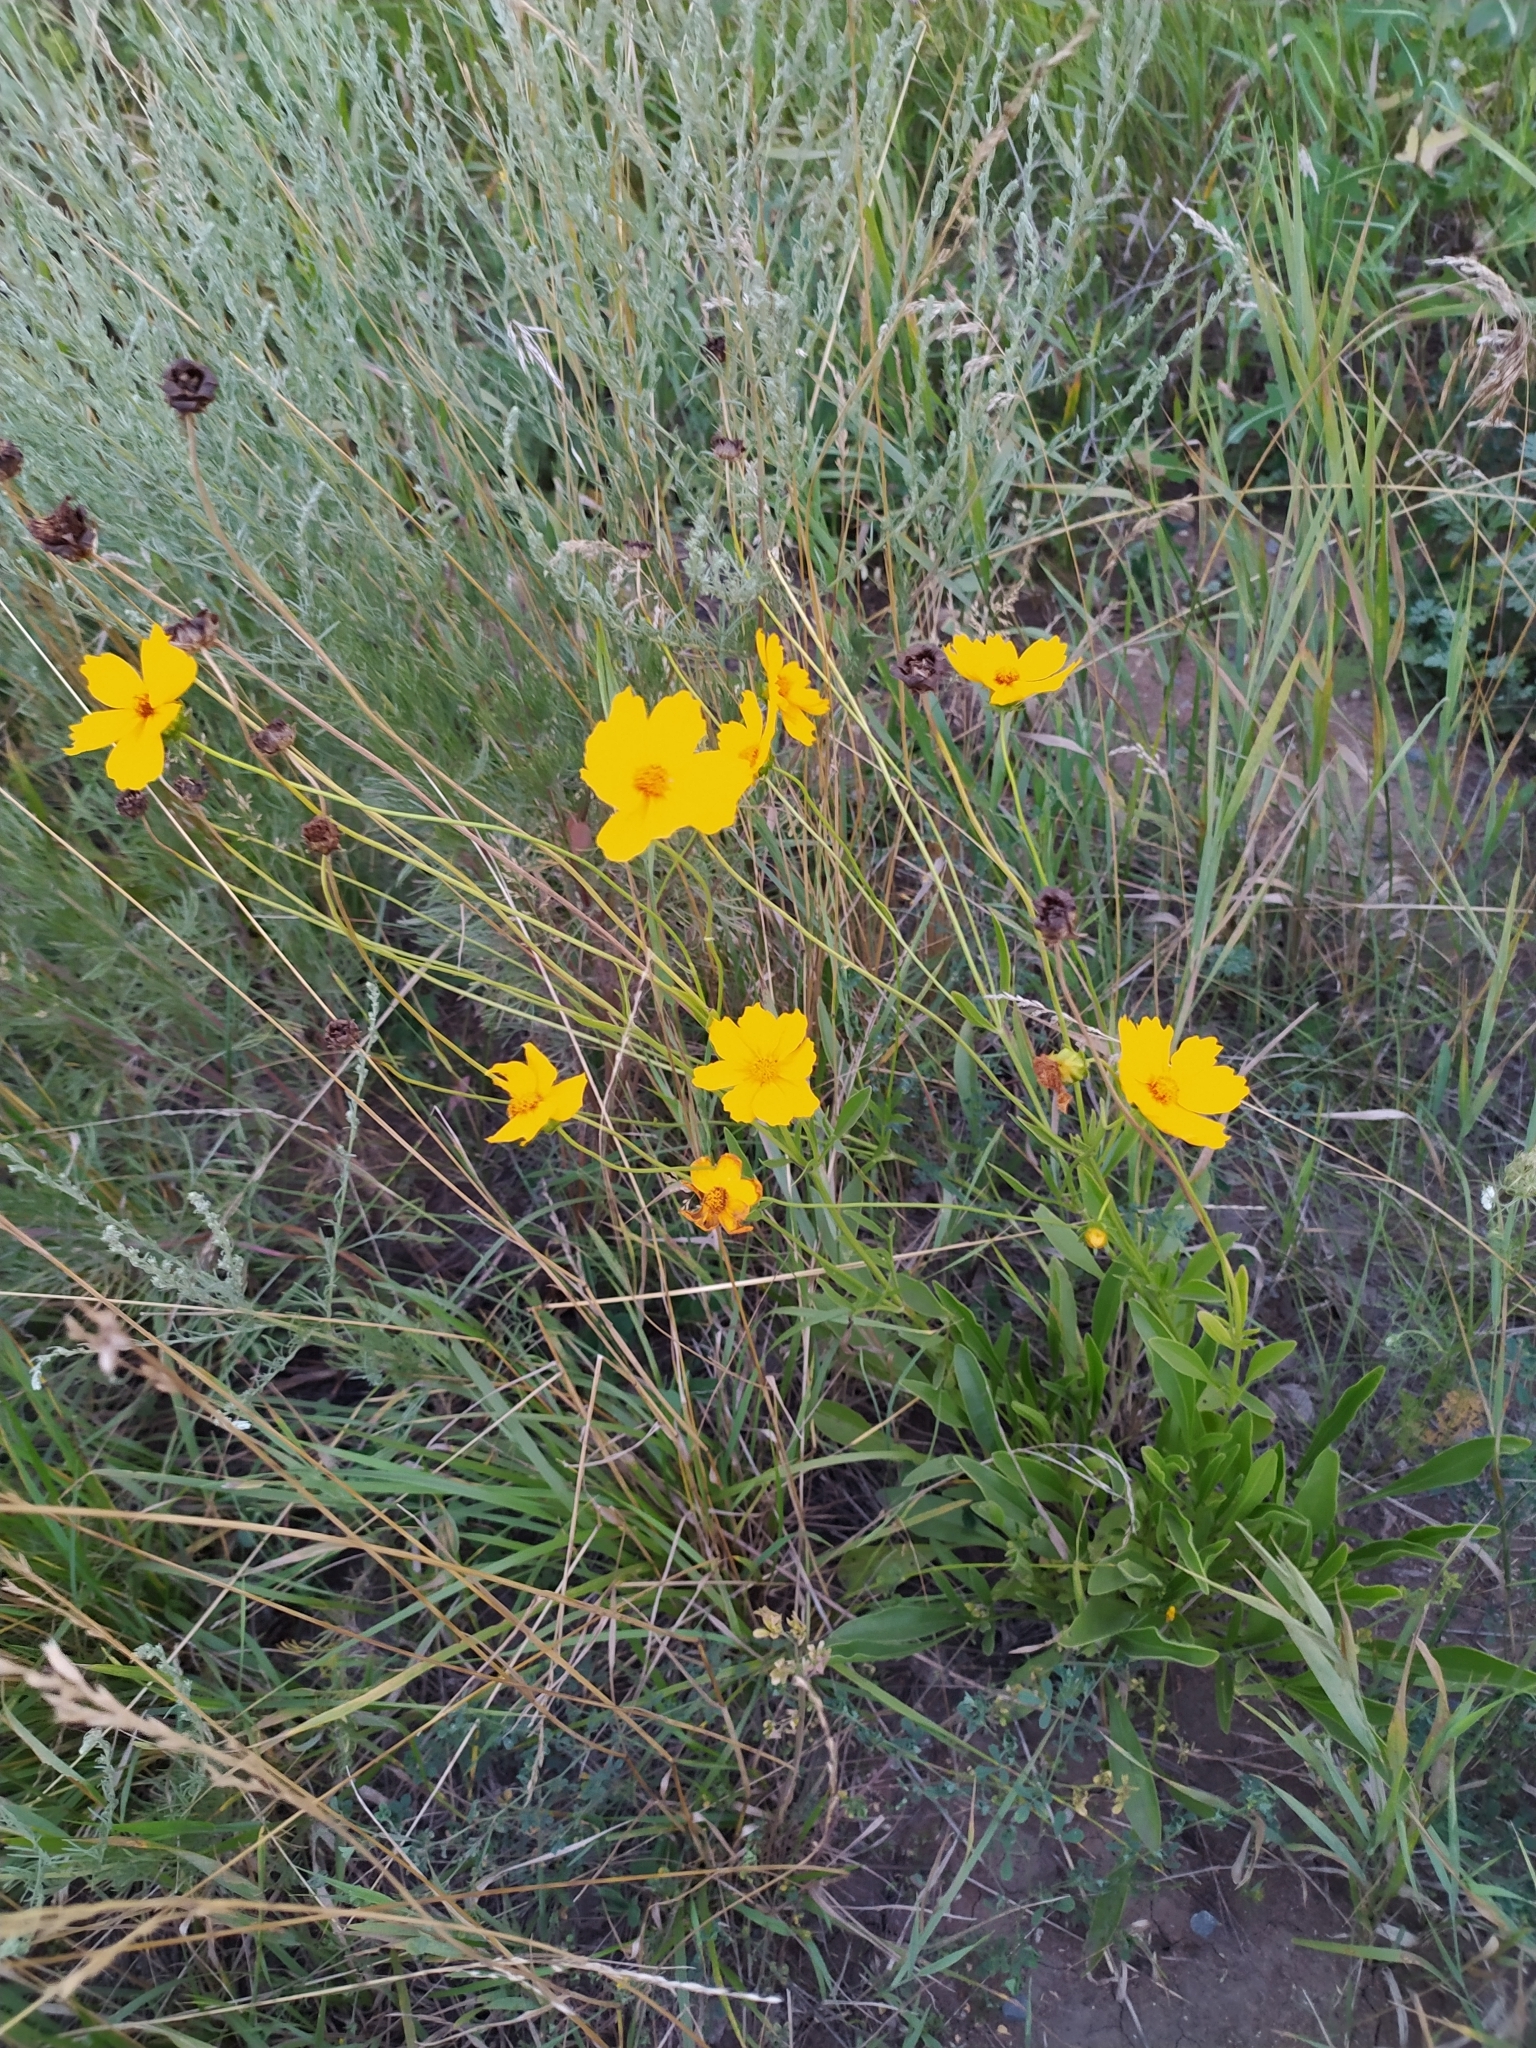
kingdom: Plantae
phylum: Tracheophyta
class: Magnoliopsida
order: Asterales
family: Asteraceae
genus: Coreopsis
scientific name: Coreopsis lanceolata
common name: Garden coreopsis
